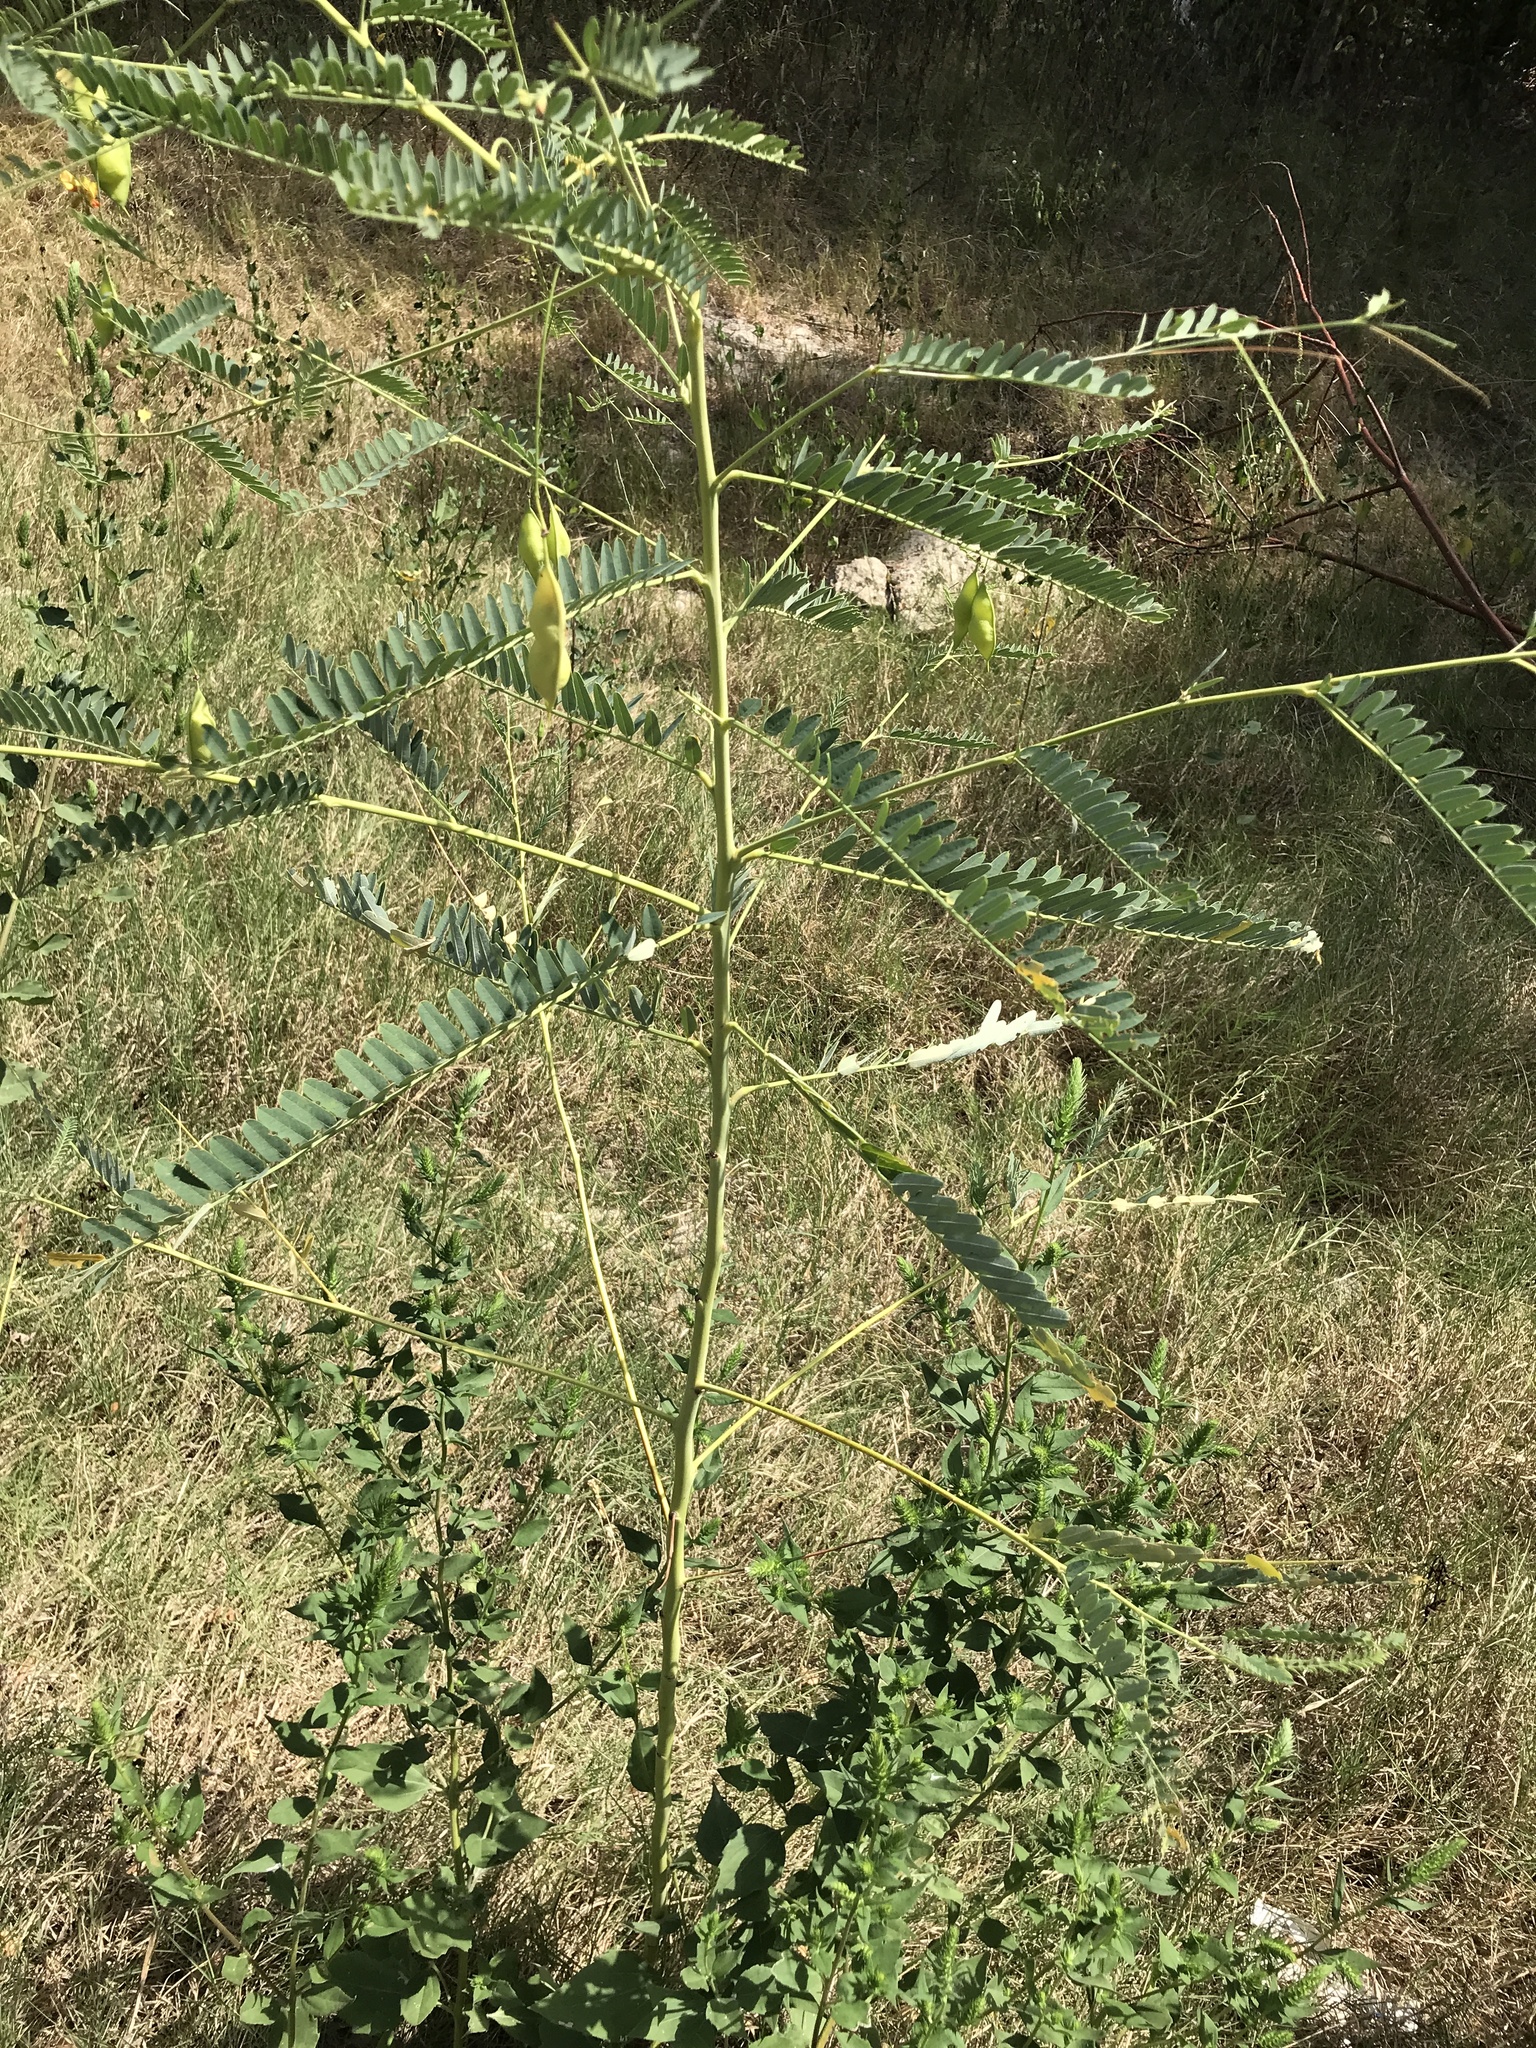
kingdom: Plantae
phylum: Tracheophyta
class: Magnoliopsida
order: Fabales
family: Fabaceae
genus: Sesbania
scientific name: Sesbania vesicaria
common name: Bagpod
